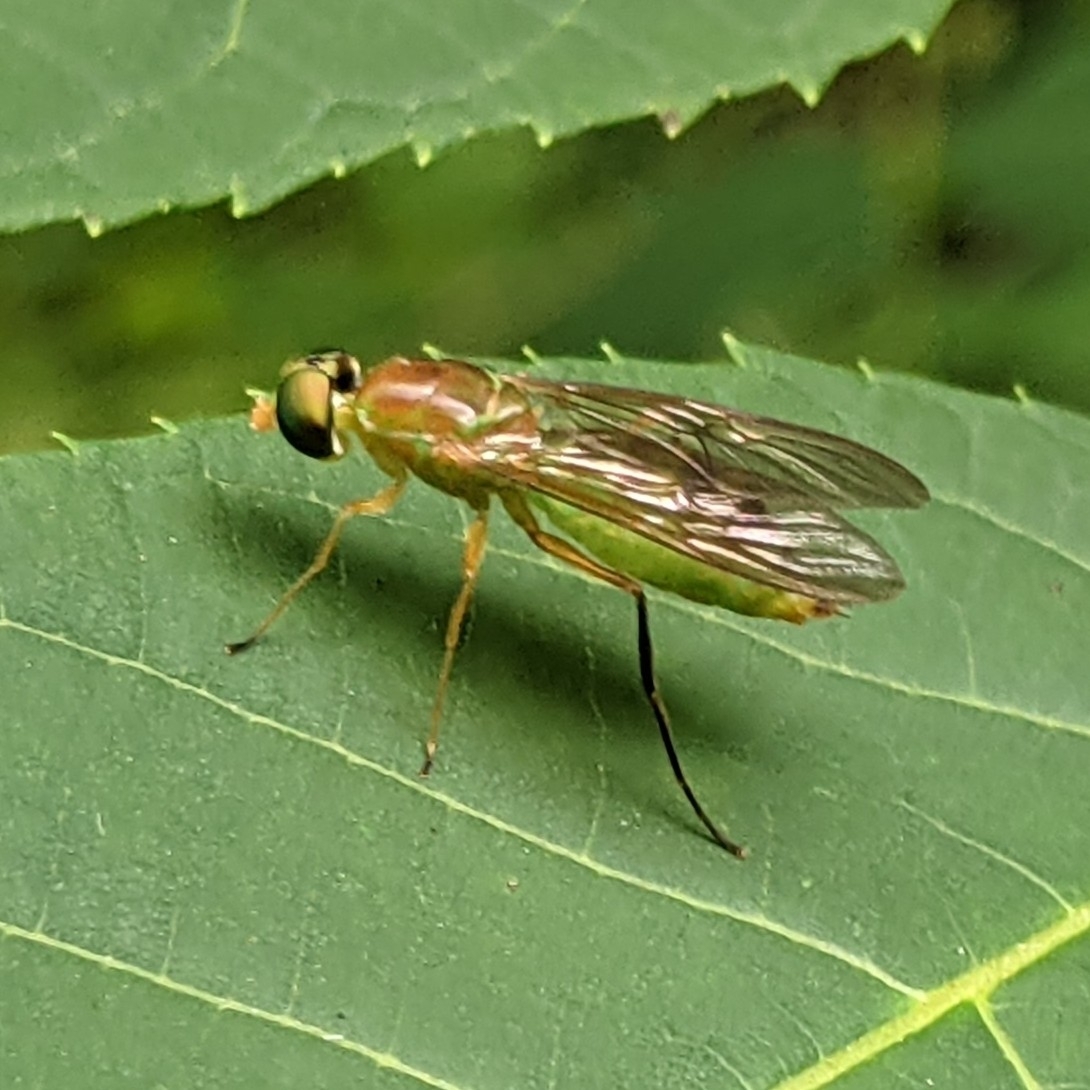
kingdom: Animalia
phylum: Arthropoda
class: Insecta
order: Diptera
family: Stratiomyidae
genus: Ptecticus
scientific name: Ptecticus trivittatus
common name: Compost fly
